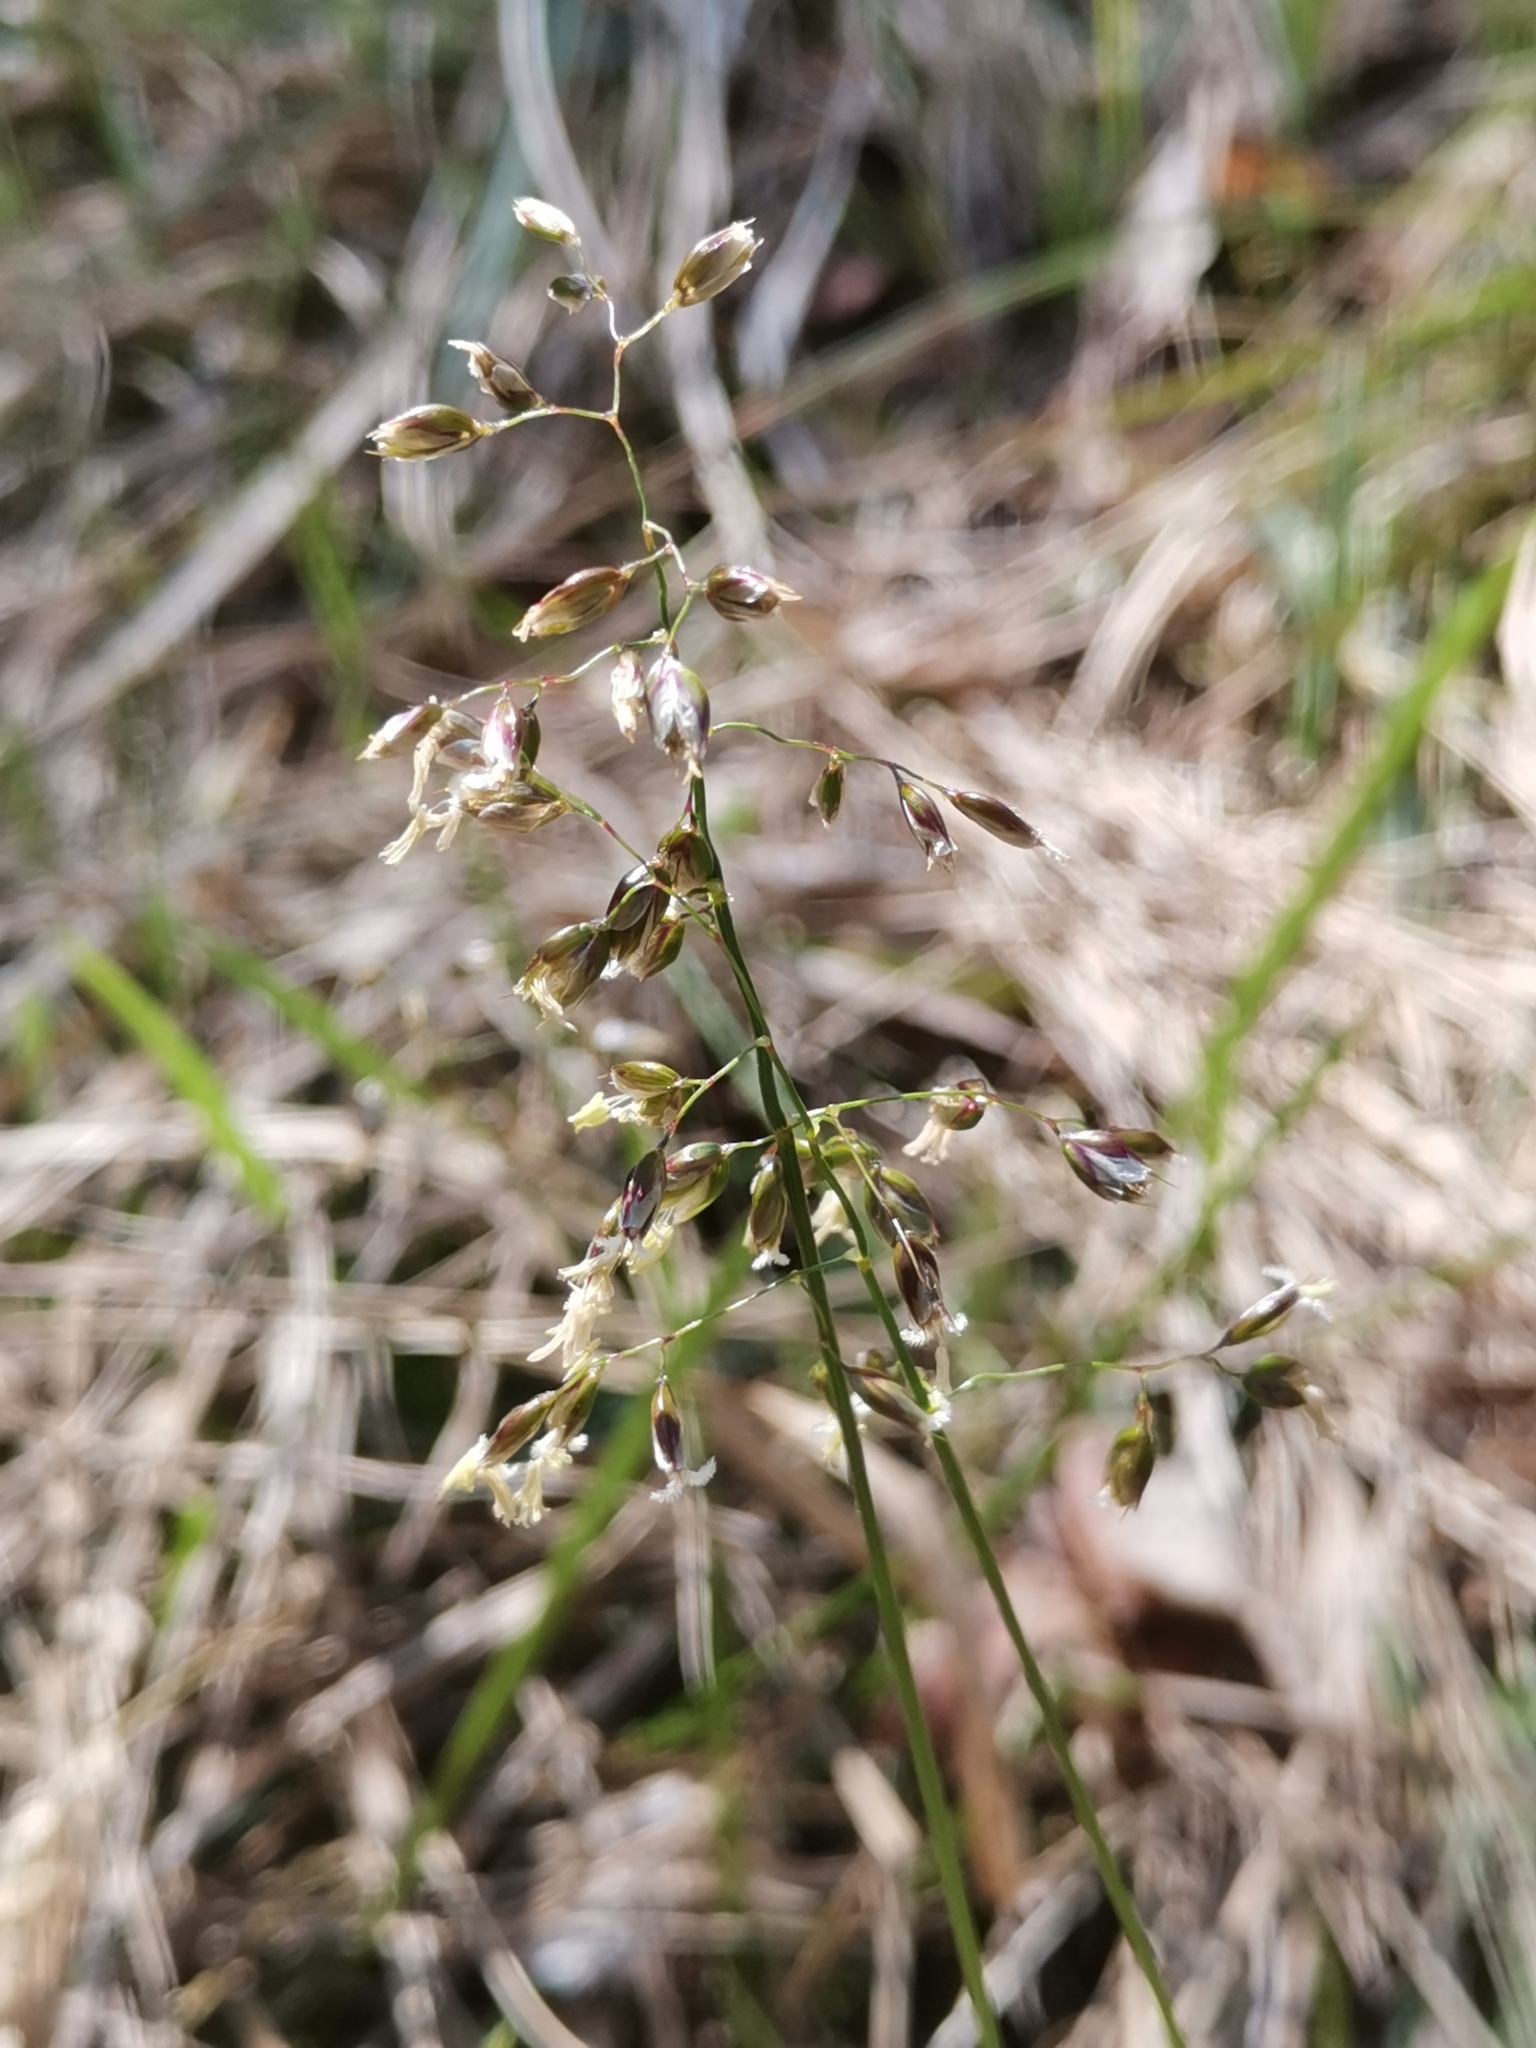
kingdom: Plantae
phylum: Tracheophyta
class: Liliopsida
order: Poales
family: Poaceae
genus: Anthoxanthum
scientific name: Anthoxanthum australe
